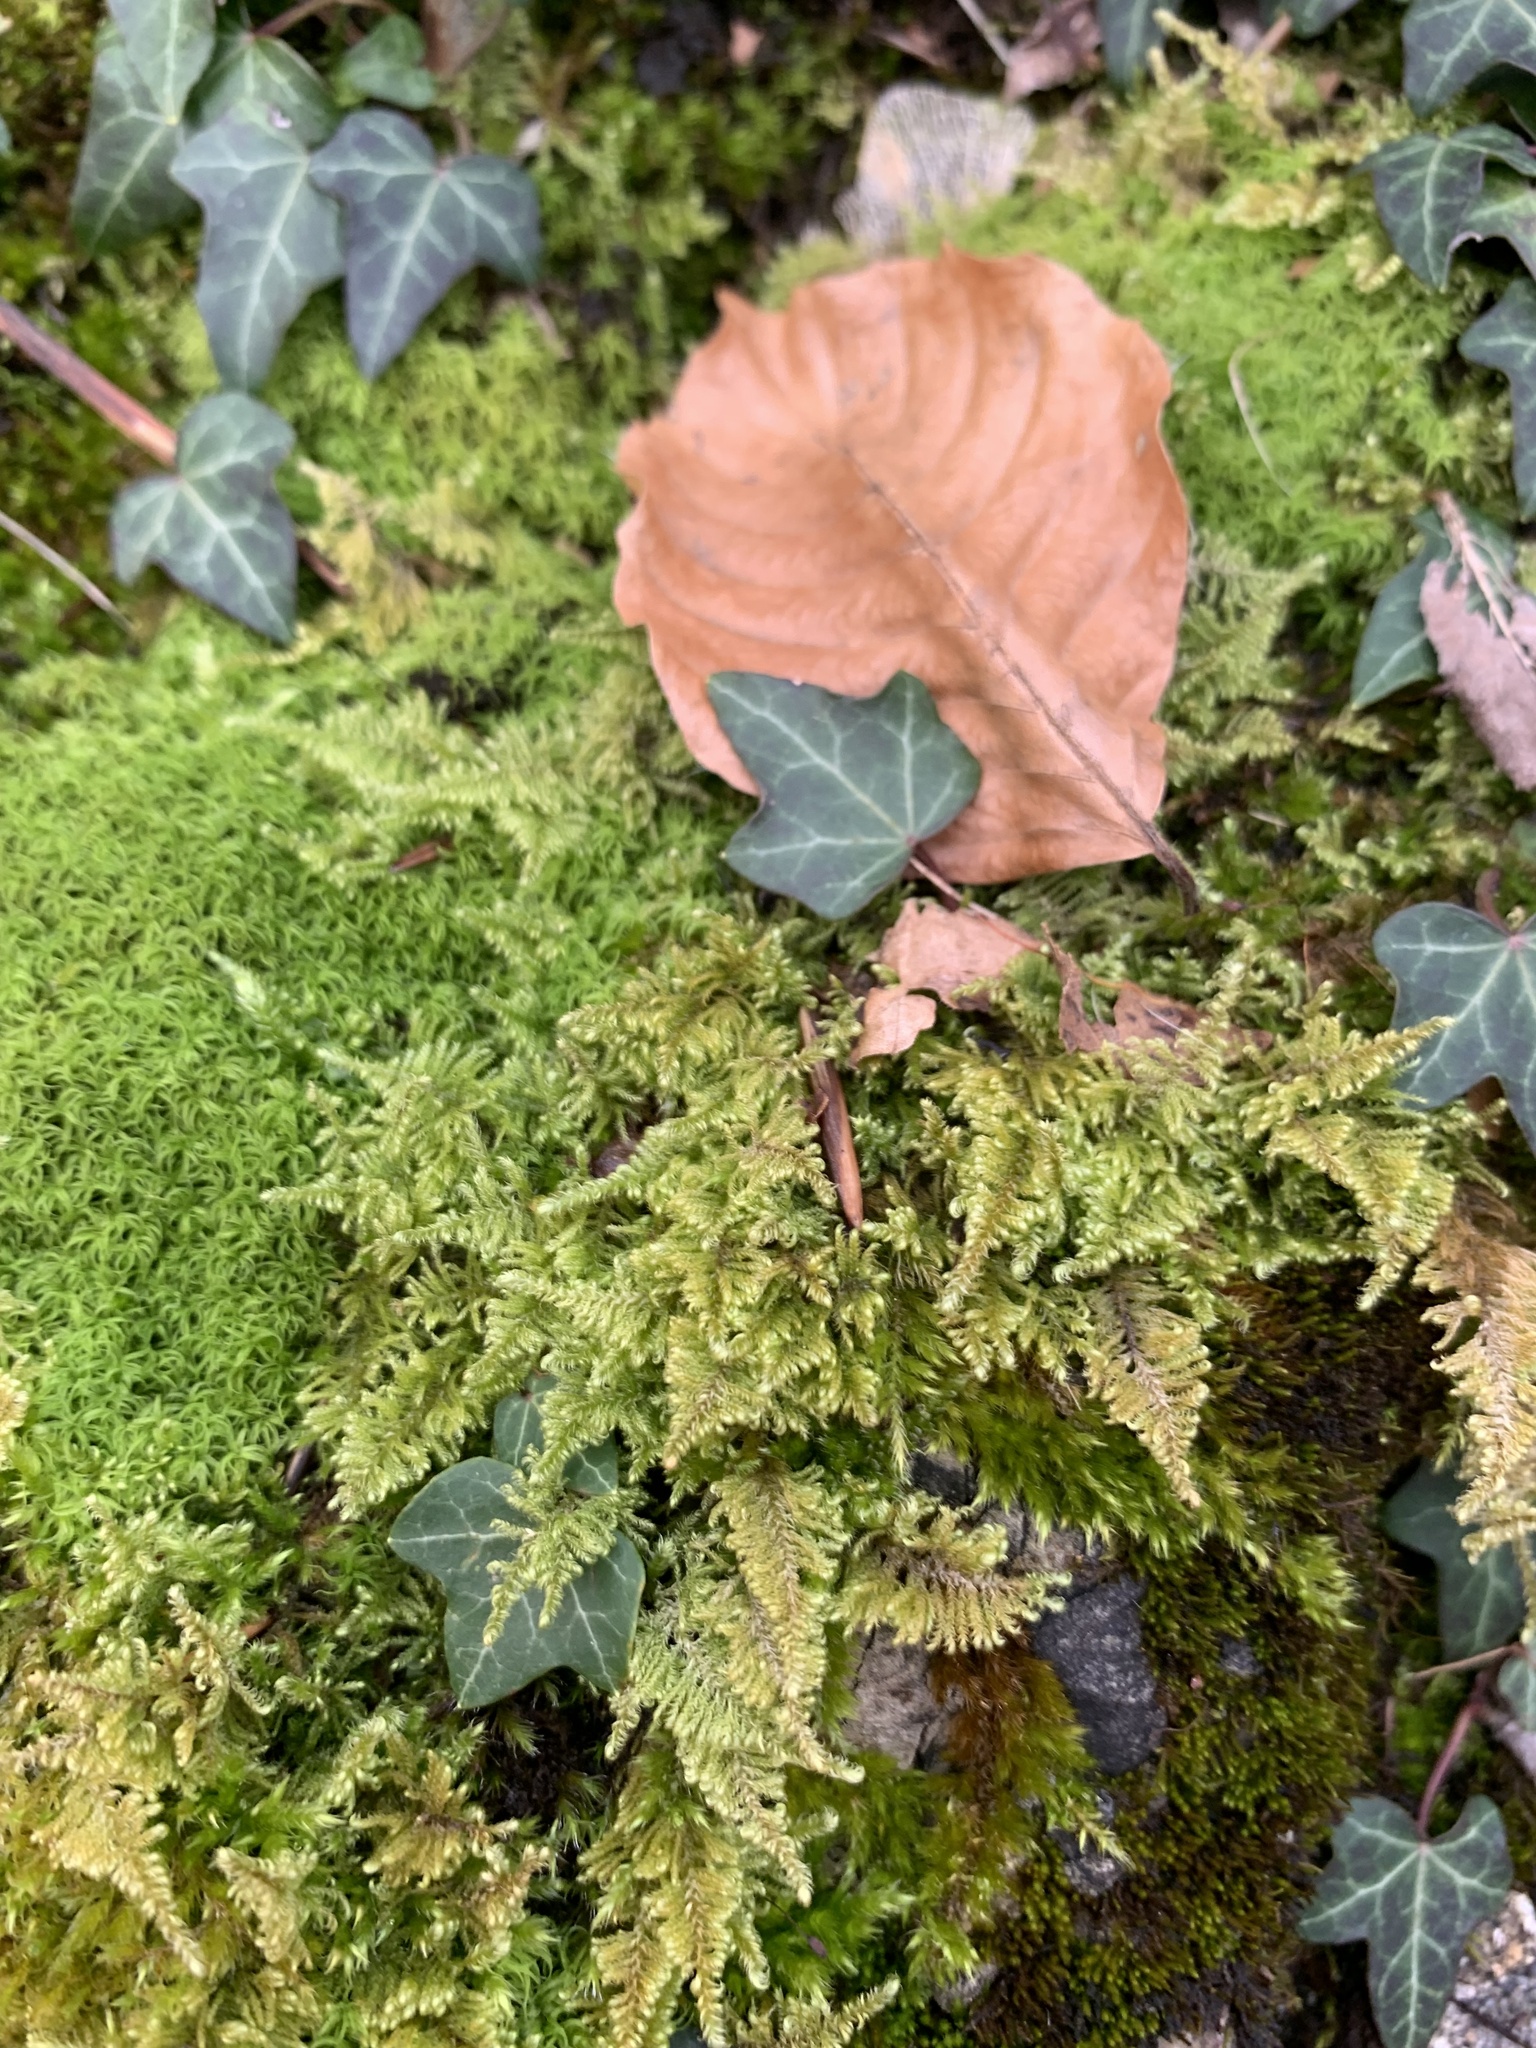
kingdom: Plantae
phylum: Bryophyta
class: Bryopsida
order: Hypnales
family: Myuriaceae
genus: Ctenidium
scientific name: Ctenidium molluscum
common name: Chalk comb-moss
